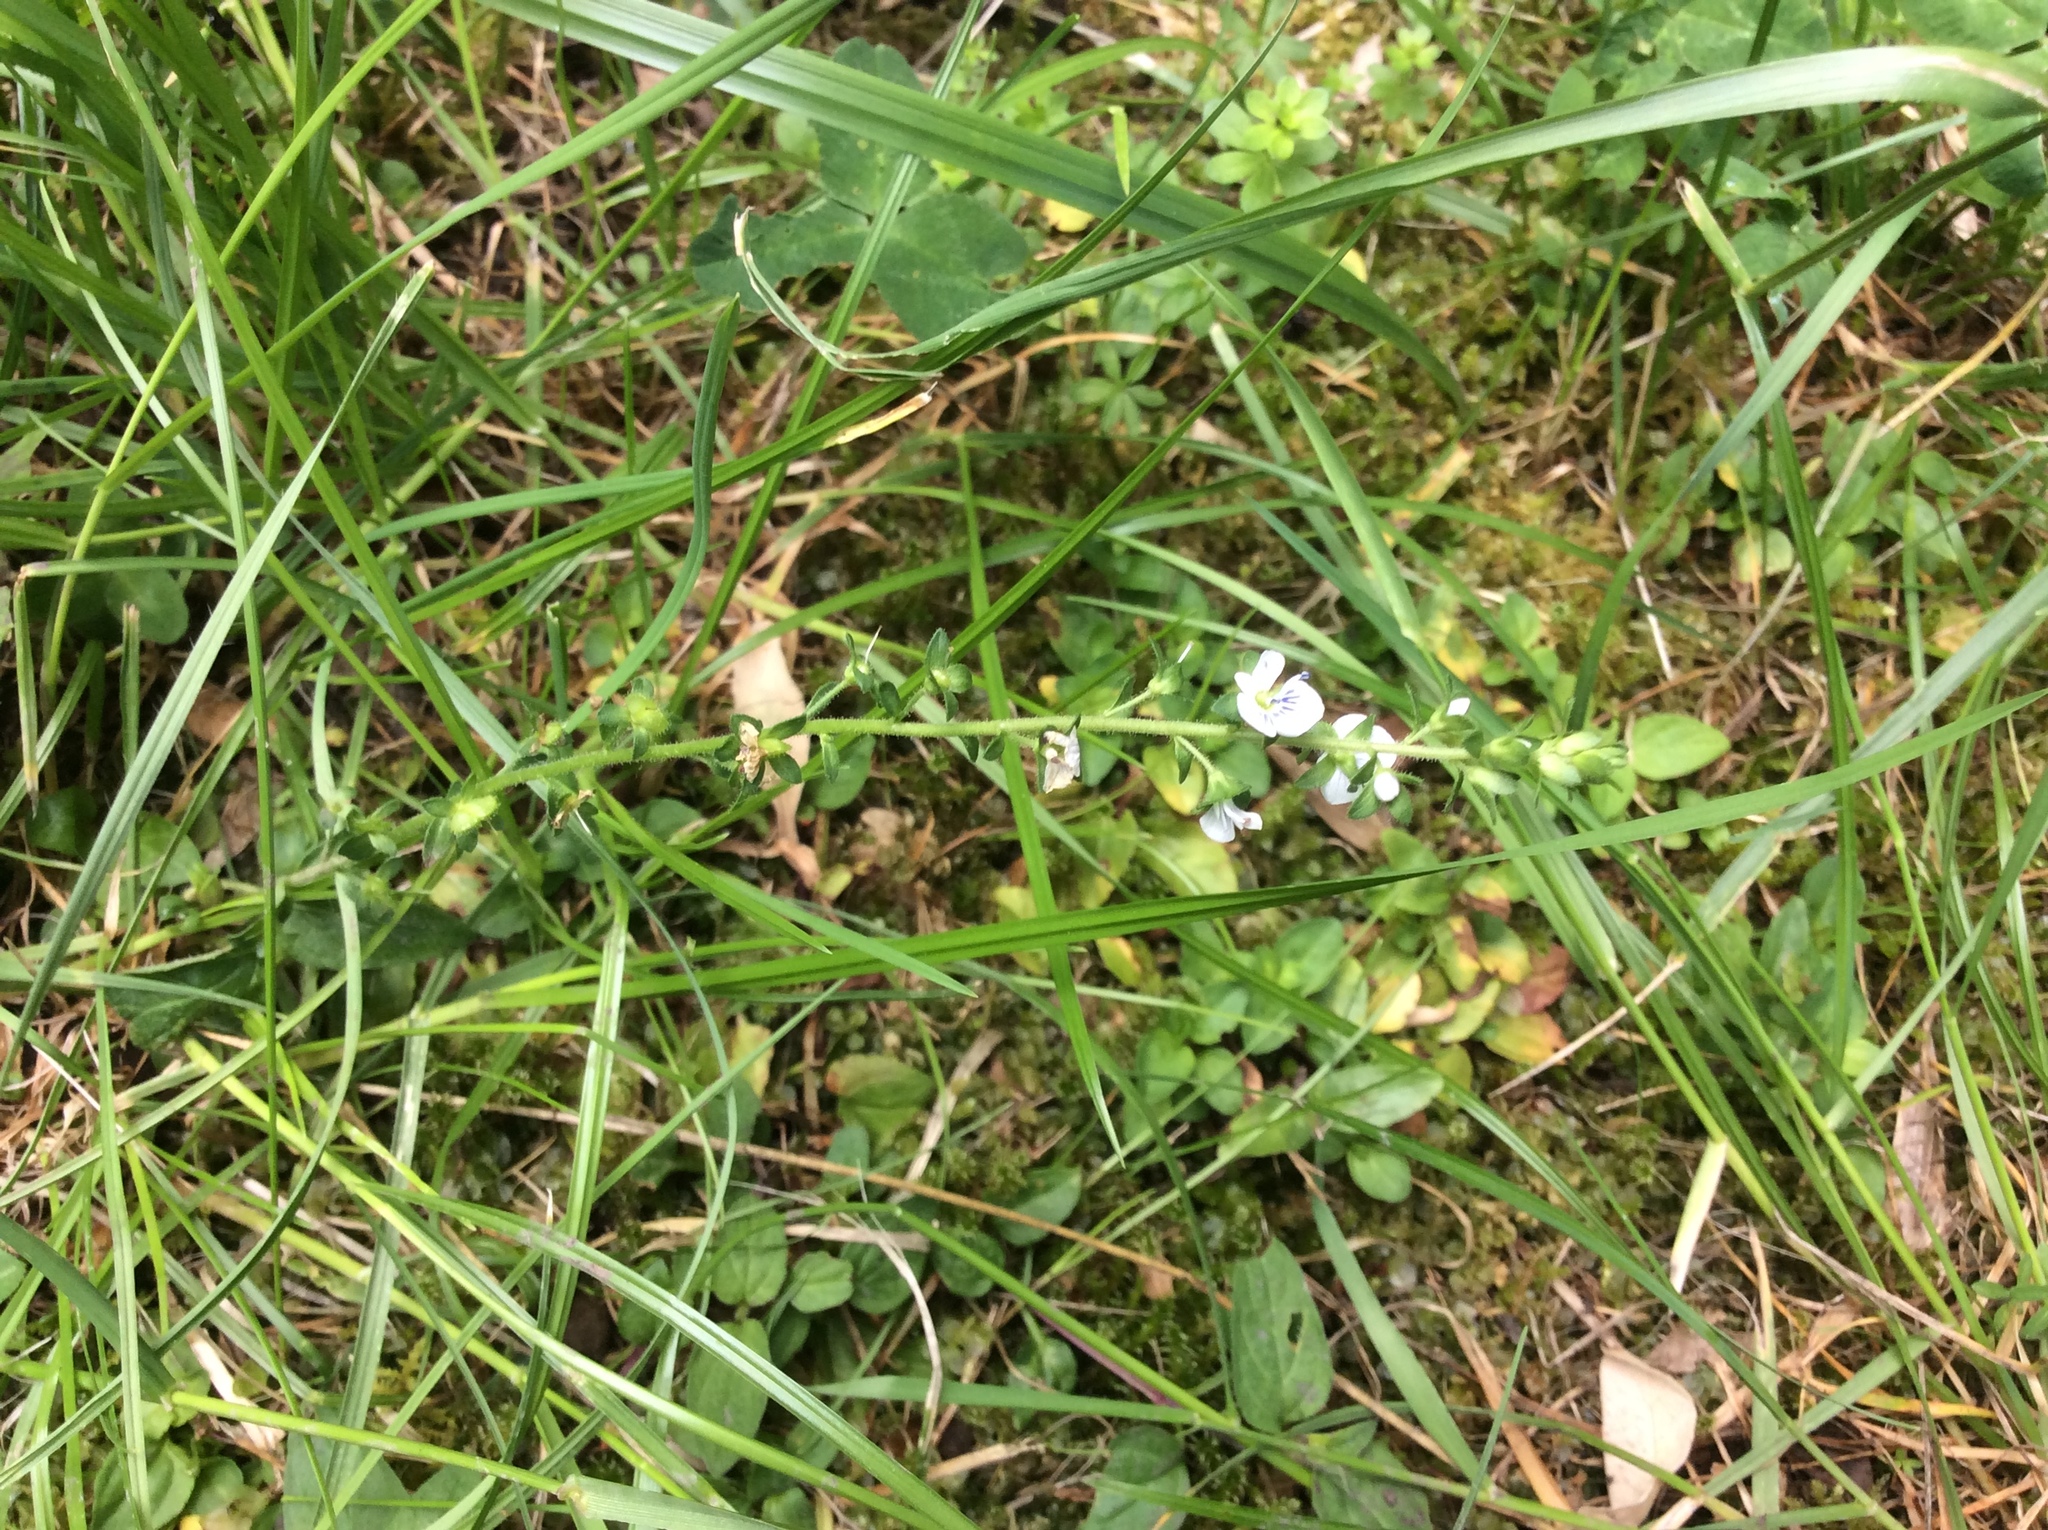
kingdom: Plantae
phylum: Tracheophyta
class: Magnoliopsida
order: Lamiales
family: Plantaginaceae
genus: Veronica
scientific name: Veronica serpyllifolia
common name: Thyme-leaved speedwell
